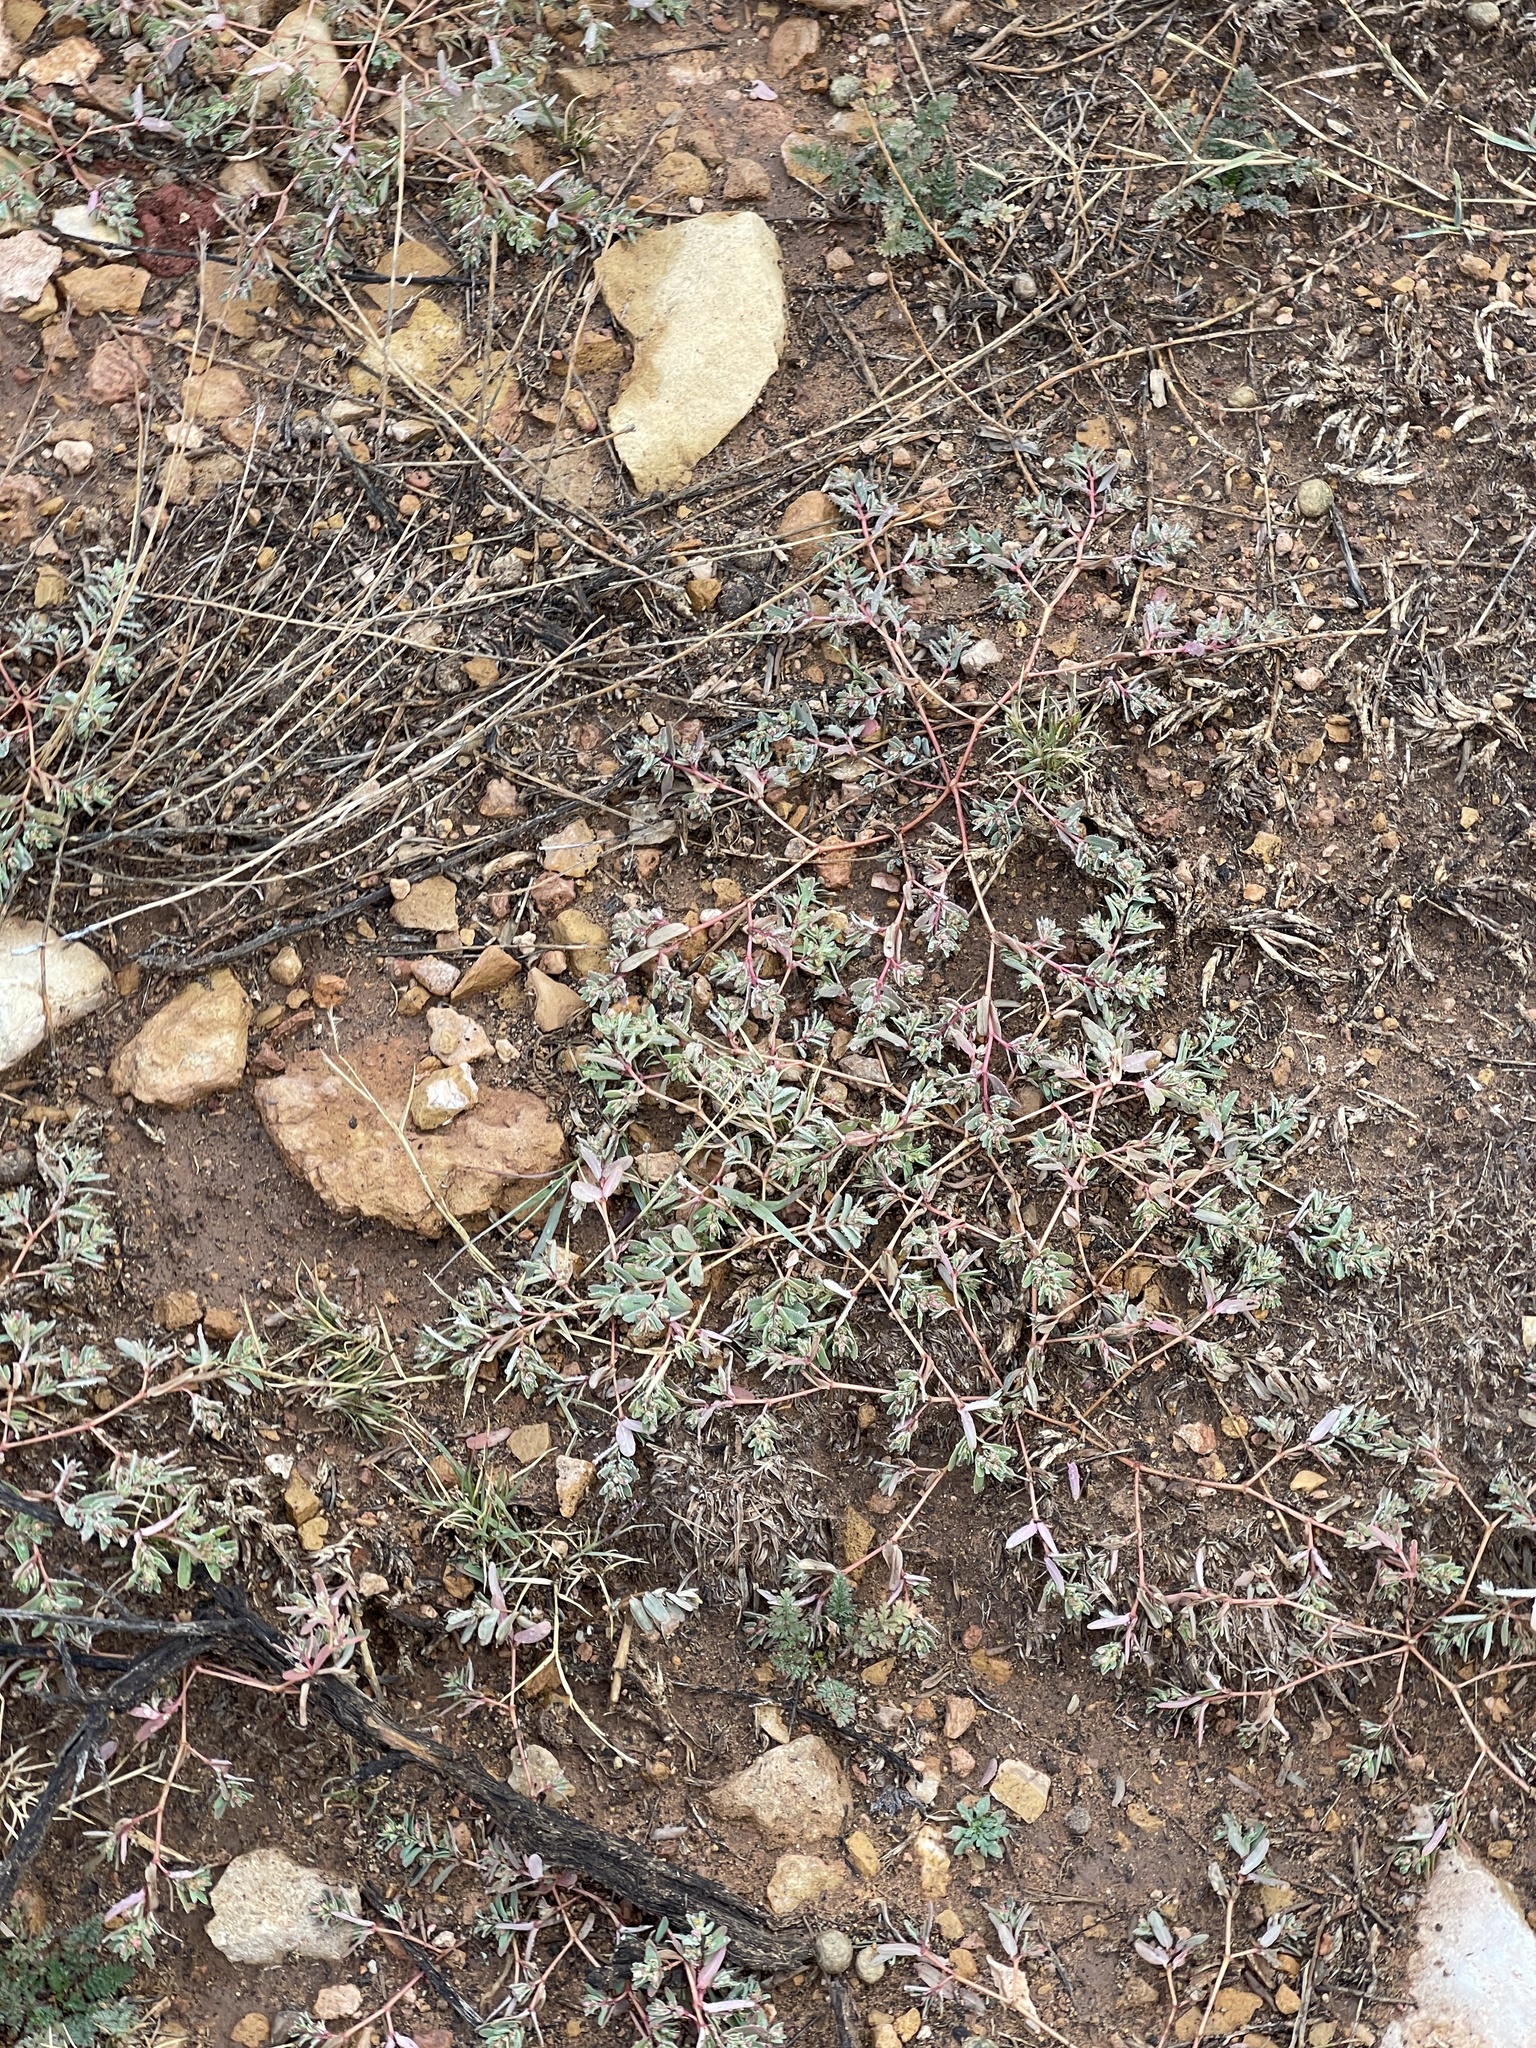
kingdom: Plantae
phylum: Tracheophyta
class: Magnoliopsida
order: Malpighiales
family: Euphorbiaceae
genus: Euphorbia
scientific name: Euphorbia serpillifolia
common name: Thyme-leaf spurge
